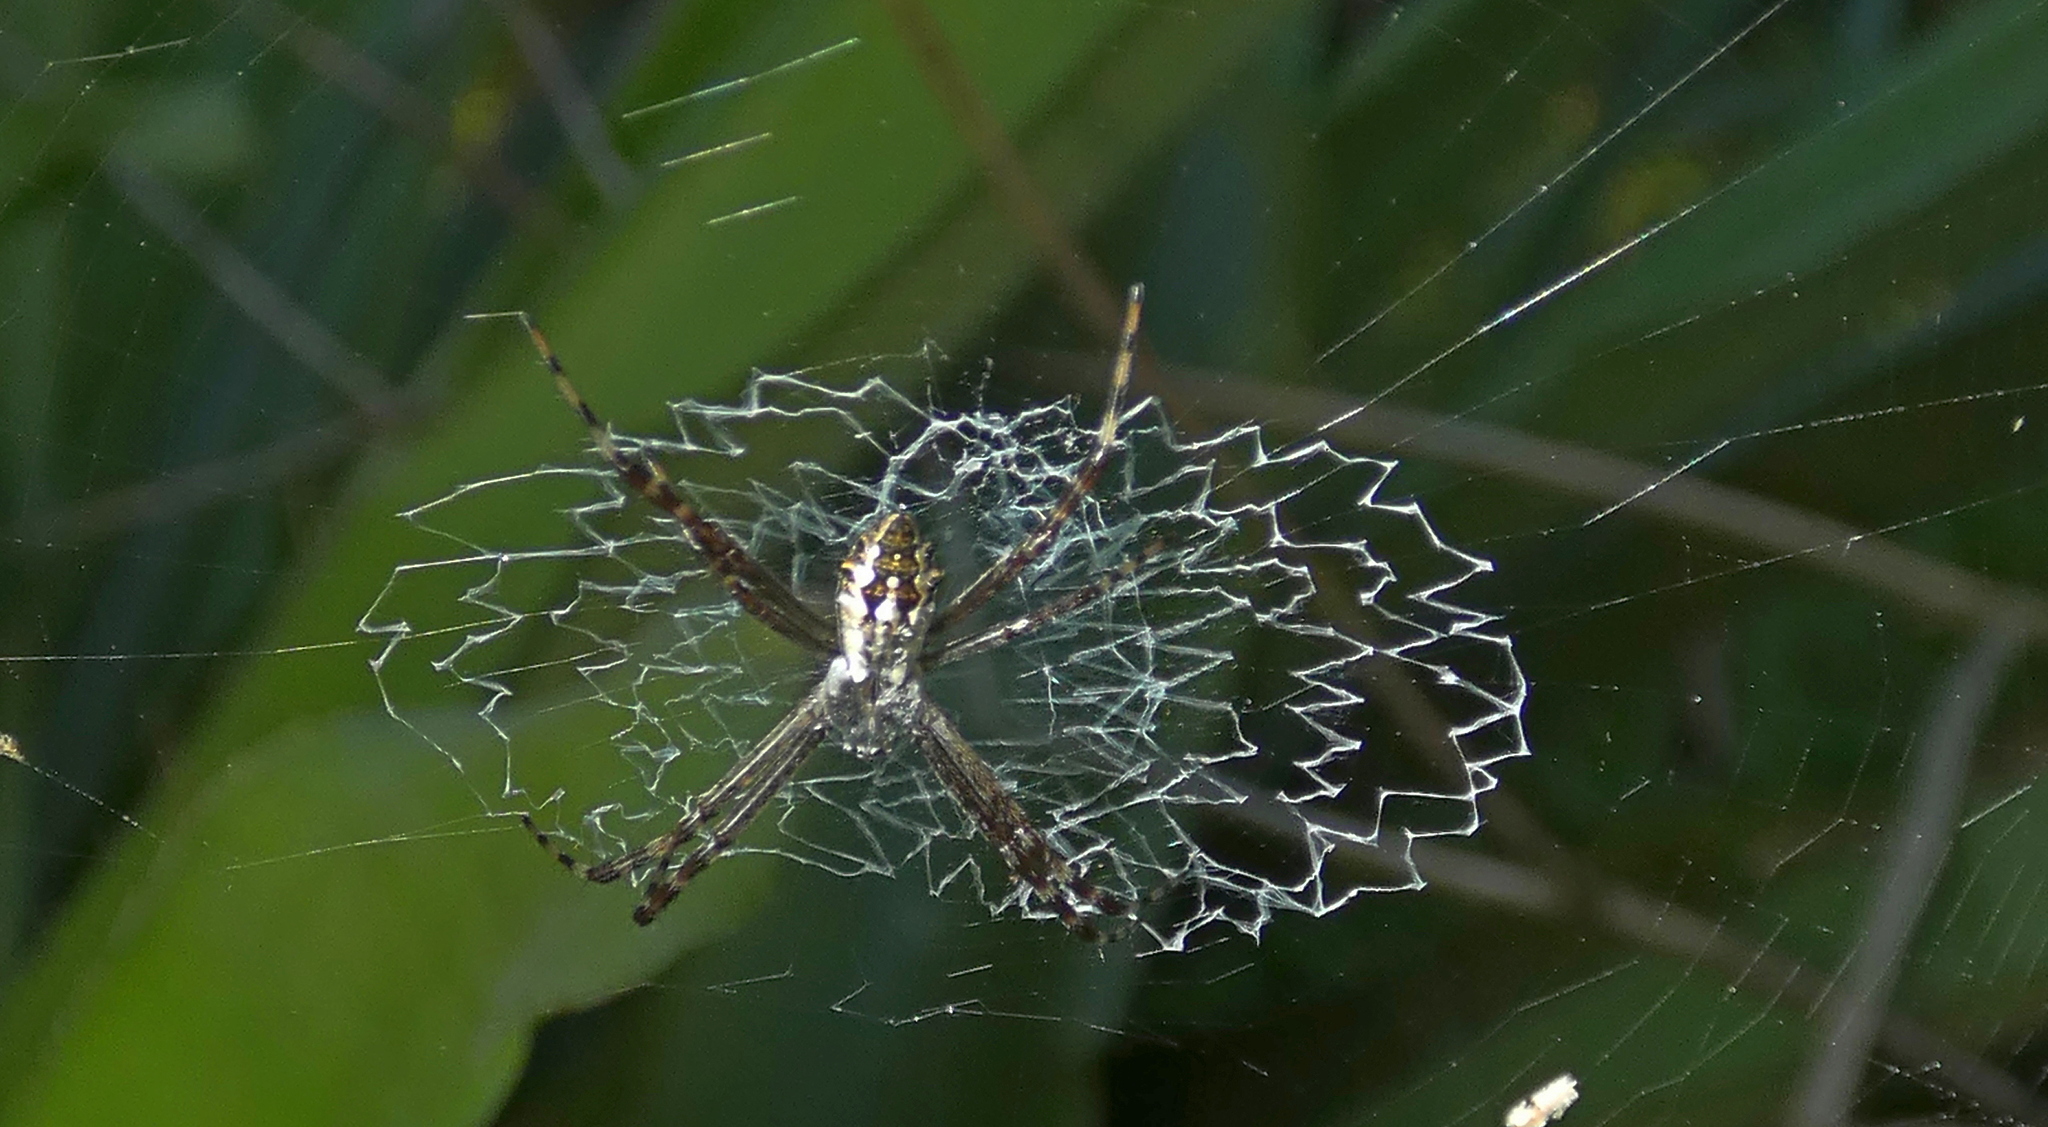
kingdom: Animalia
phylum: Arthropoda
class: Arachnida
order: Araneae
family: Araneidae
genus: Argiope
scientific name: Argiope argentata
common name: Orb weavers
